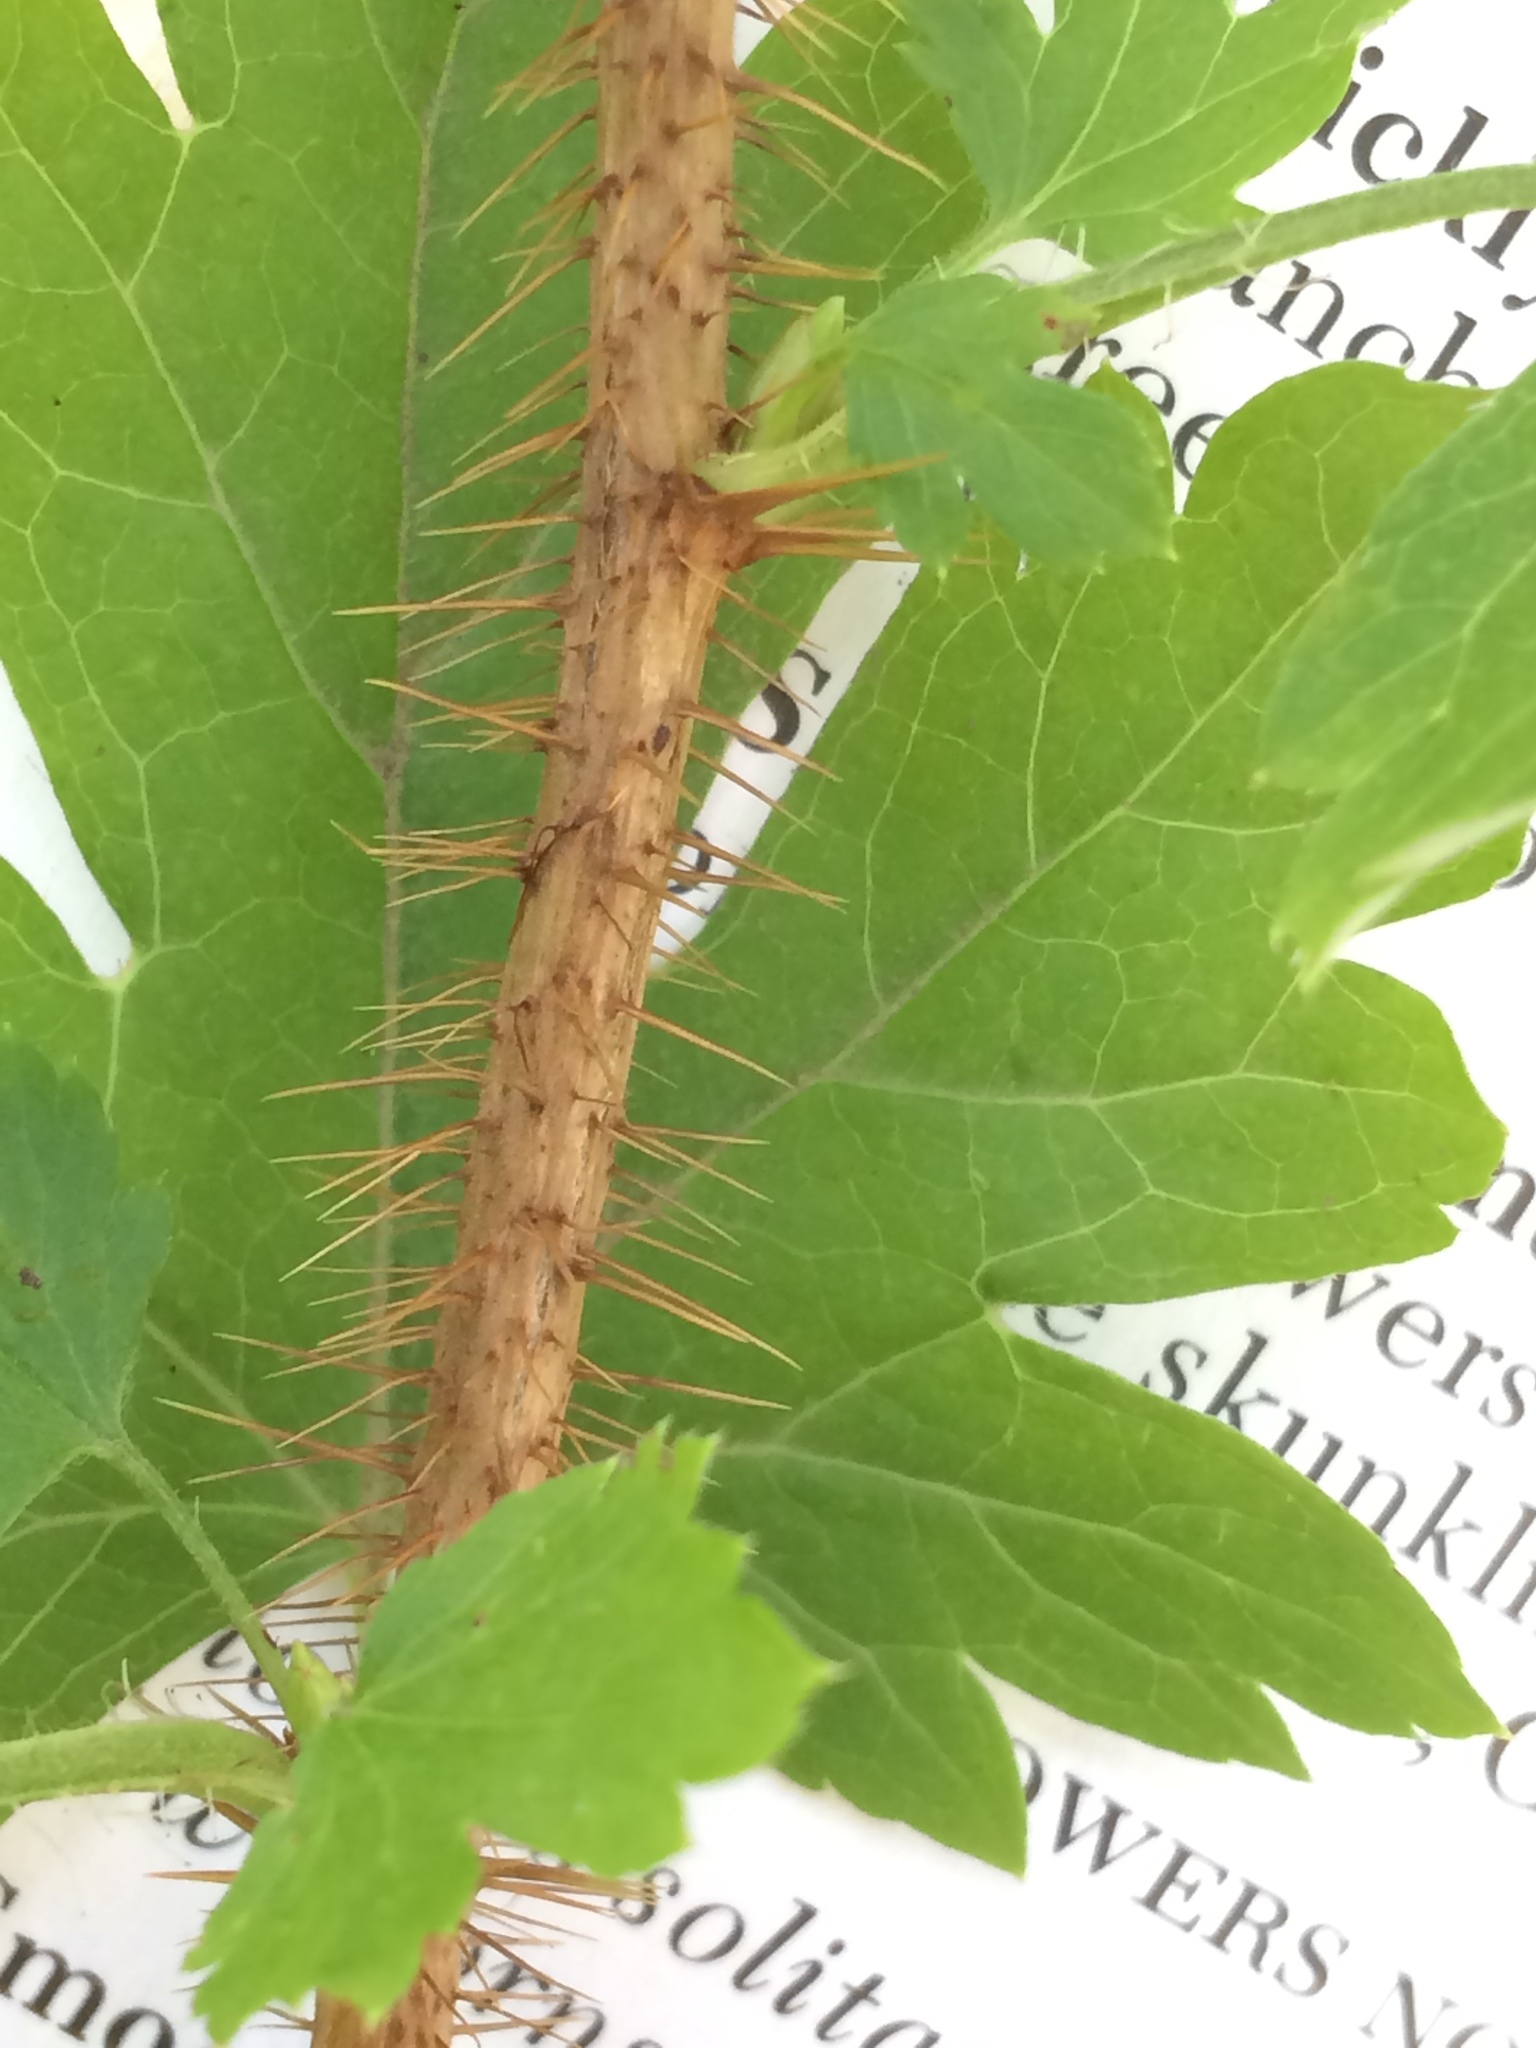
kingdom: Plantae
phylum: Tracheophyta
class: Magnoliopsida
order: Saxifragales
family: Grossulariaceae
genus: Ribes
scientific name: Ribes lacustre
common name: Black gooseberry
